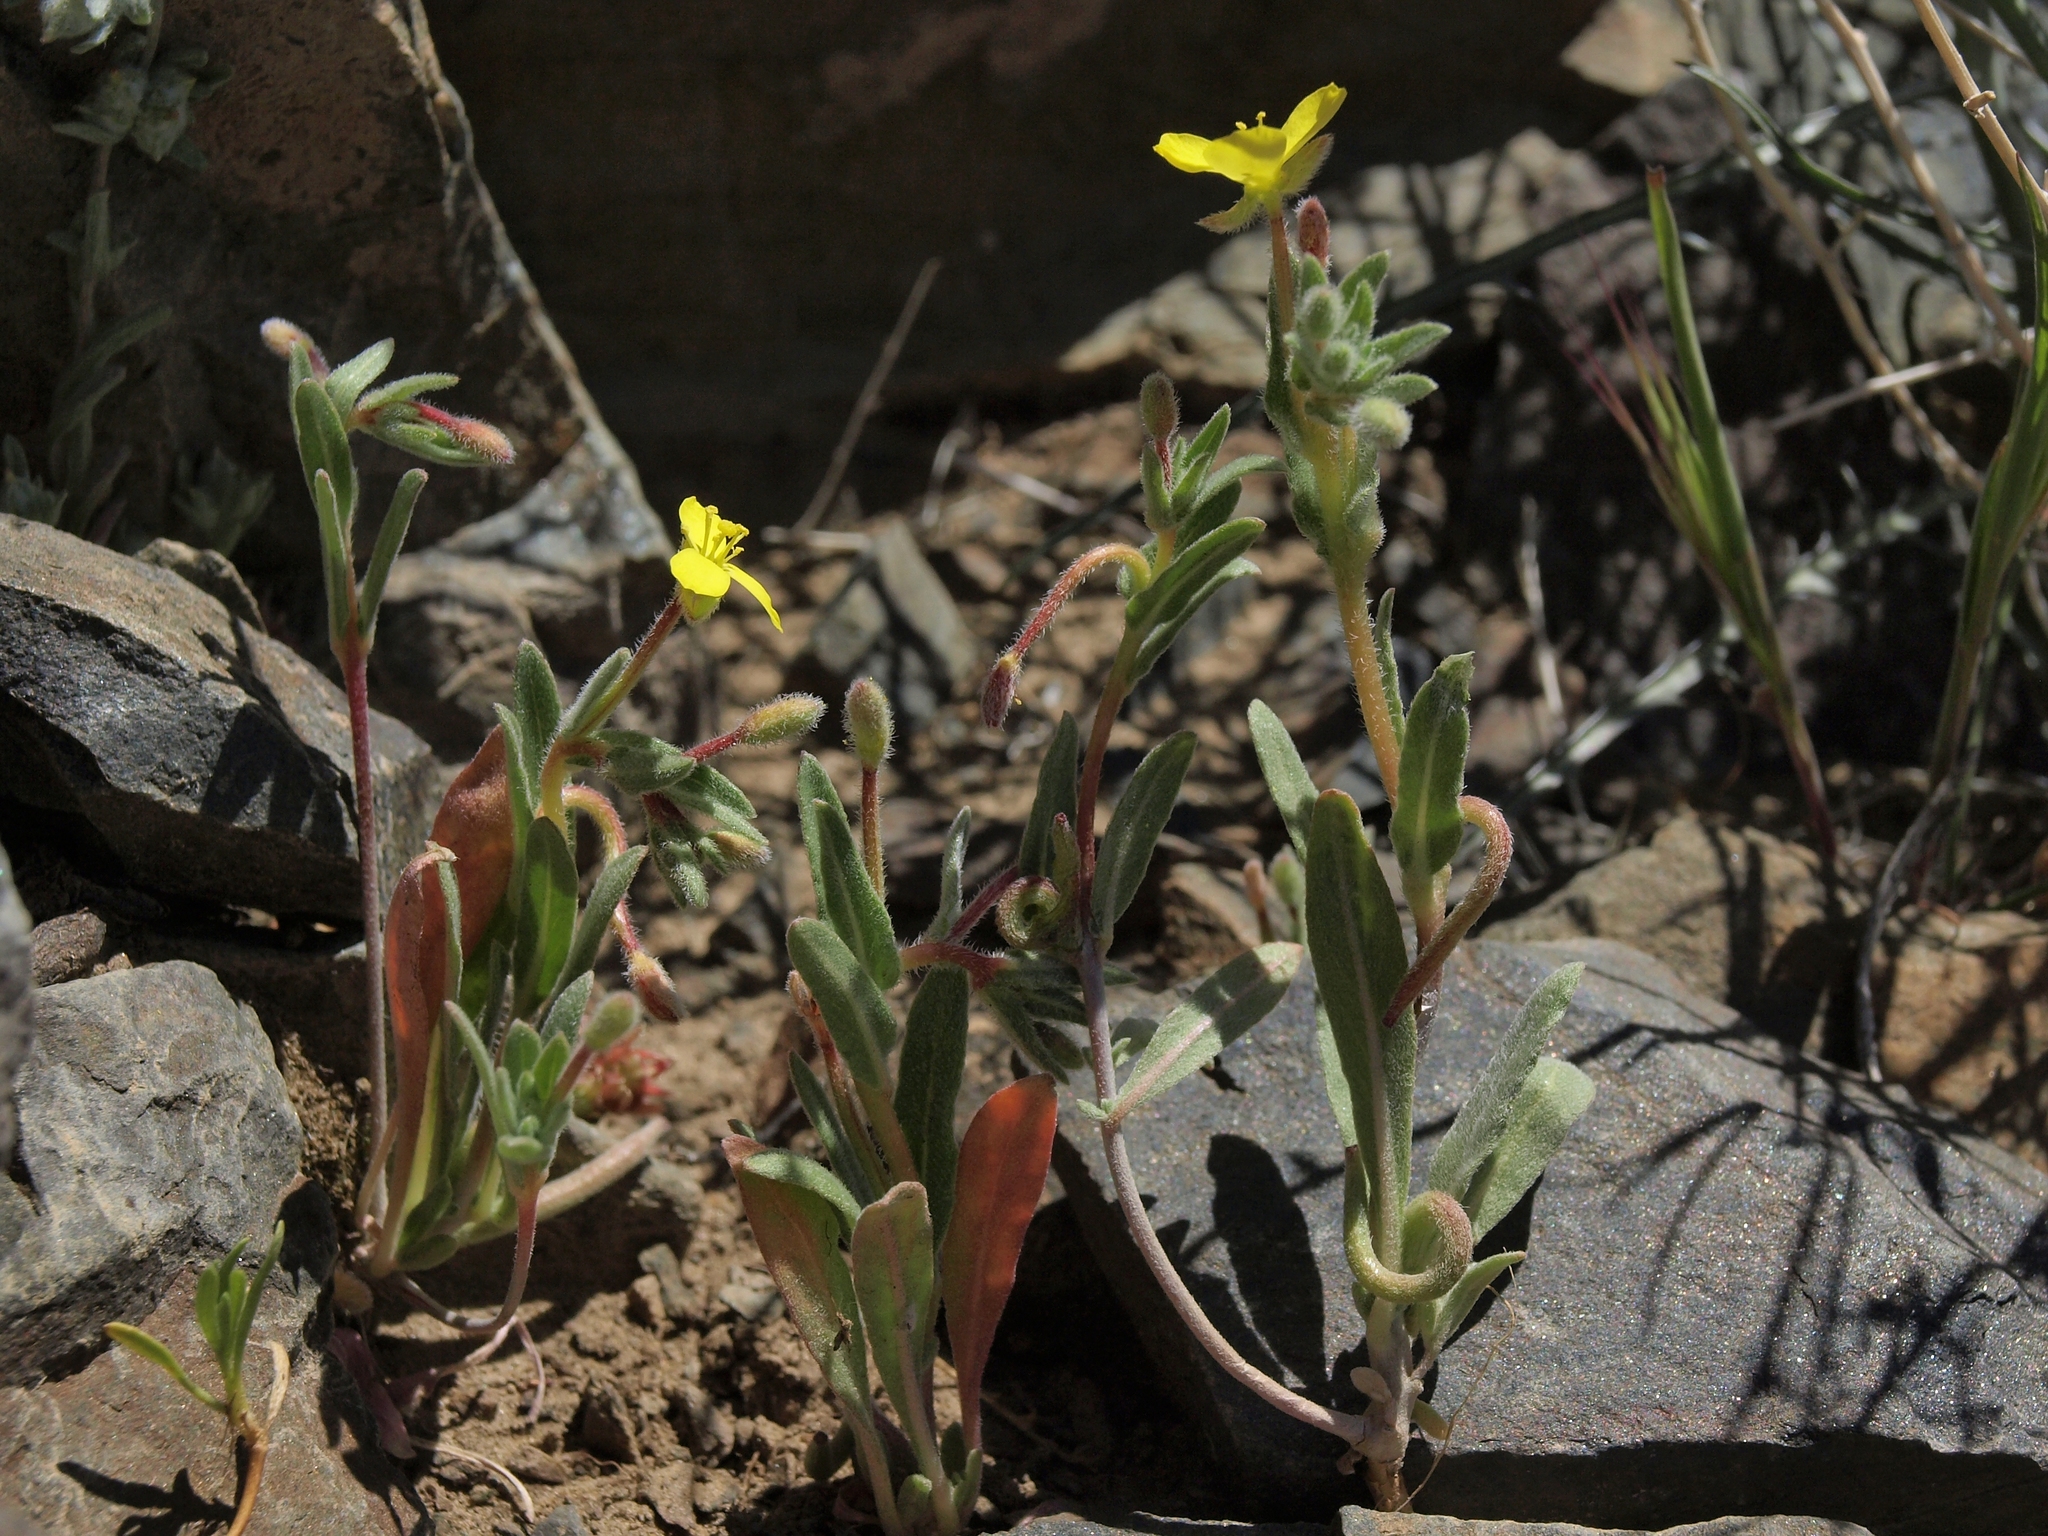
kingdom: Plantae
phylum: Tracheophyta
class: Magnoliopsida
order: Myrtales
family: Onagraceae
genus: Camissoniopsis
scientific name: Camissoniopsis pallida
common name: Paleyellow suncup
